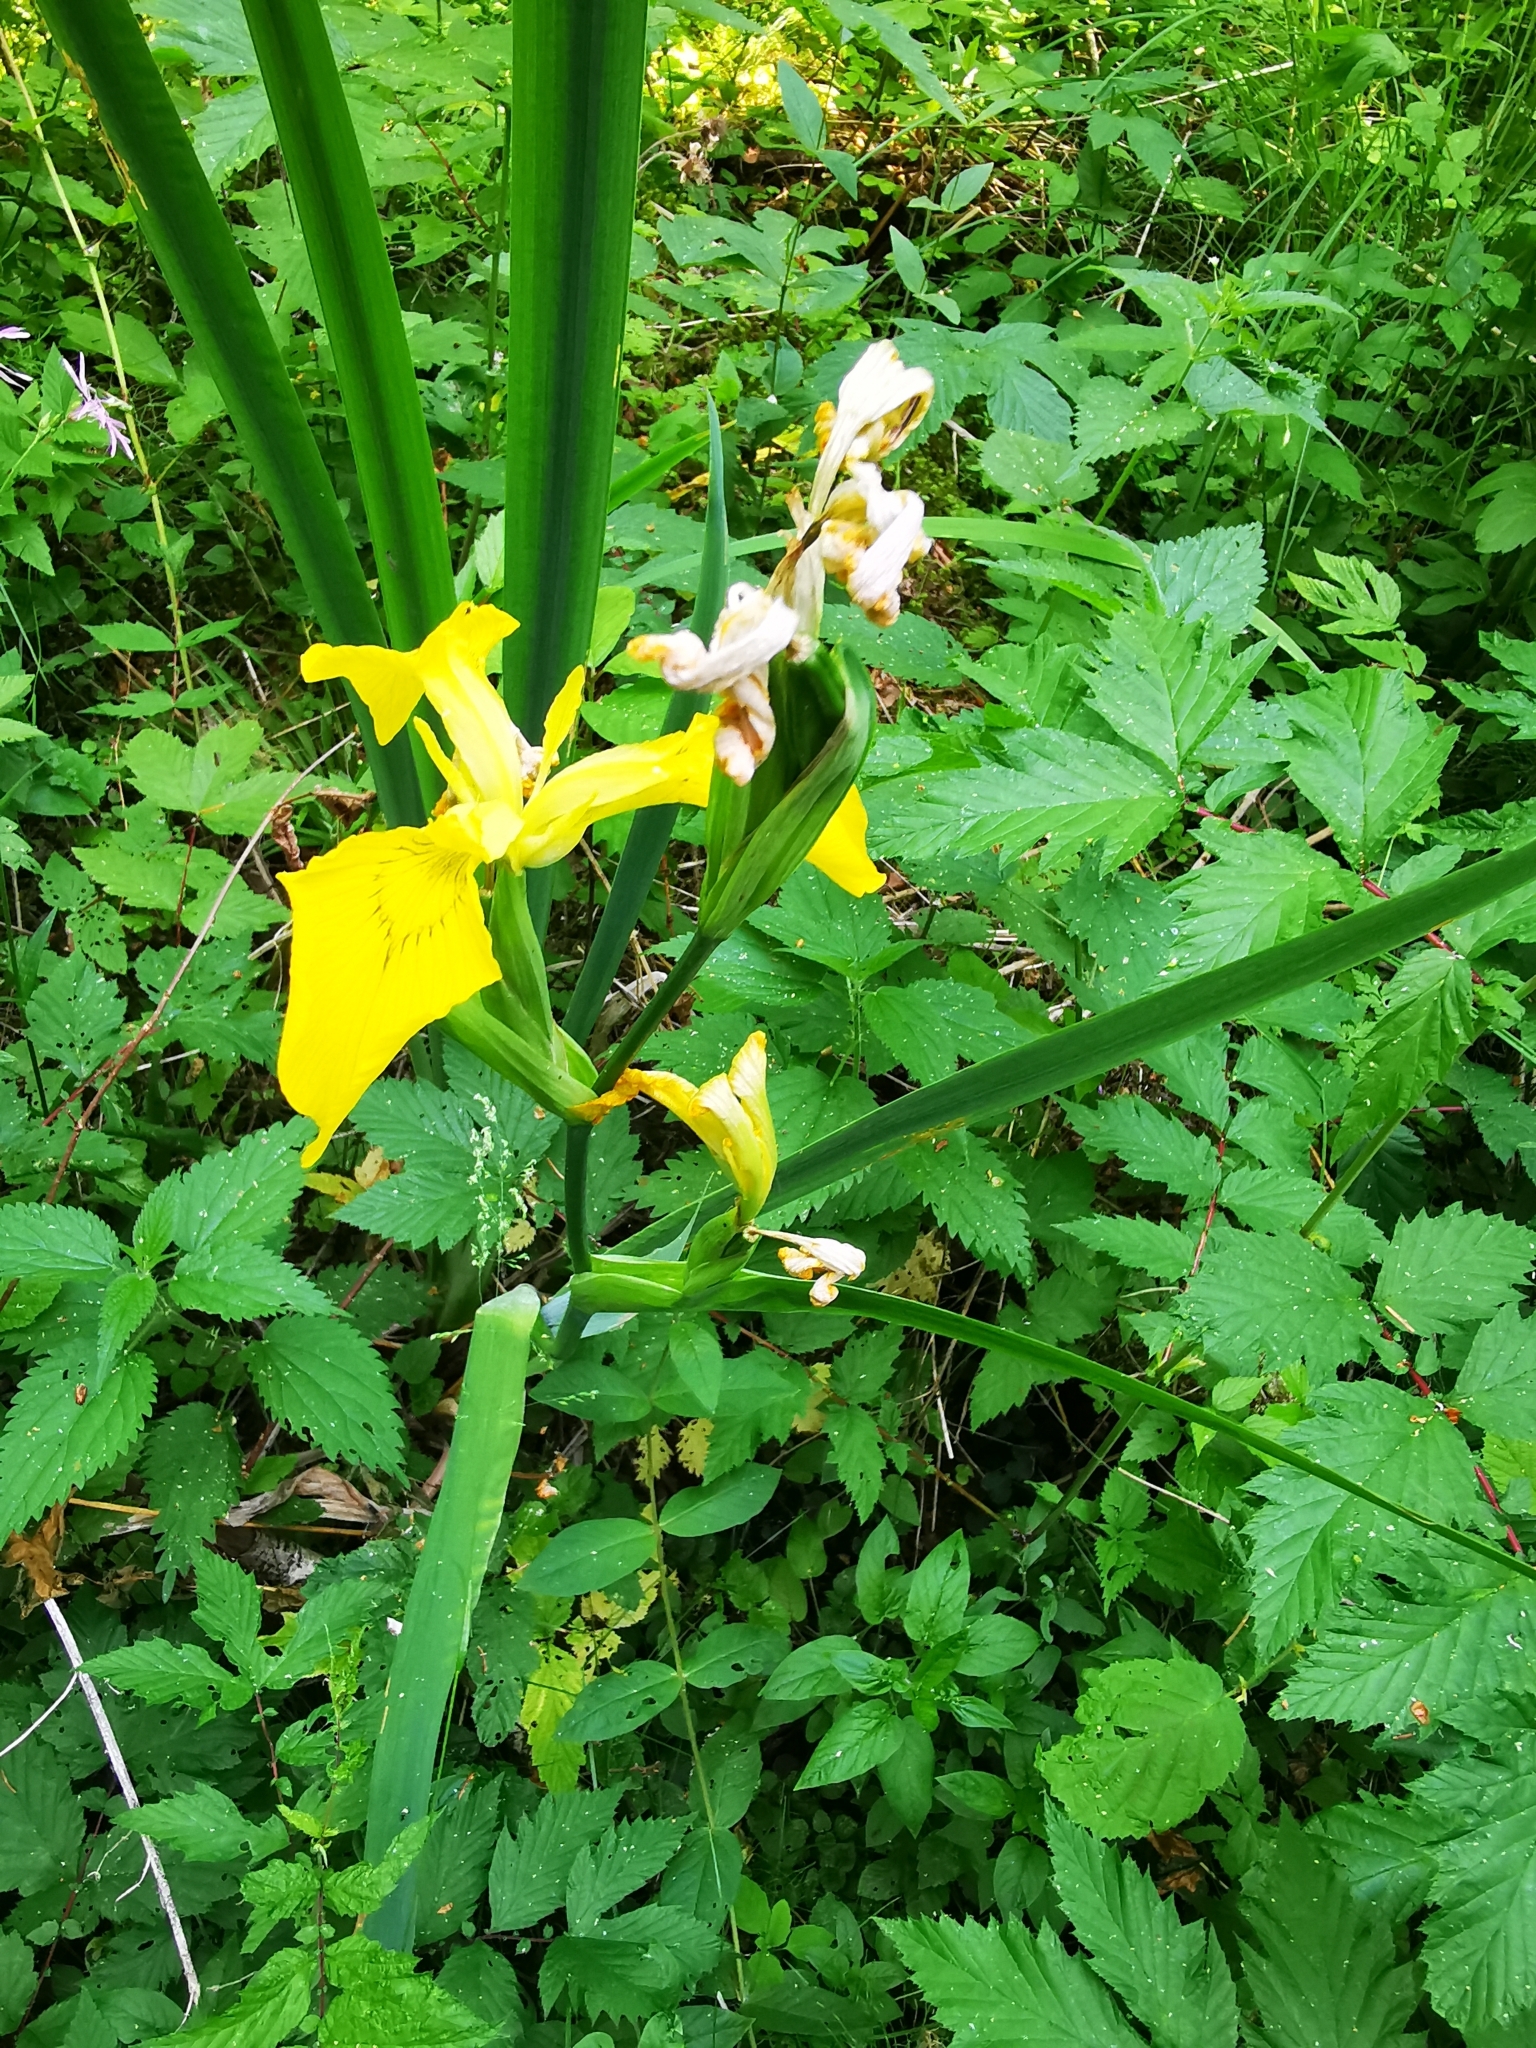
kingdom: Plantae
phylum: Tracheophyta
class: Liliopsida
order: Asparagales
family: Iridaceae
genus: Iris
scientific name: Iris pseudacorus
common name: Yellow flag
